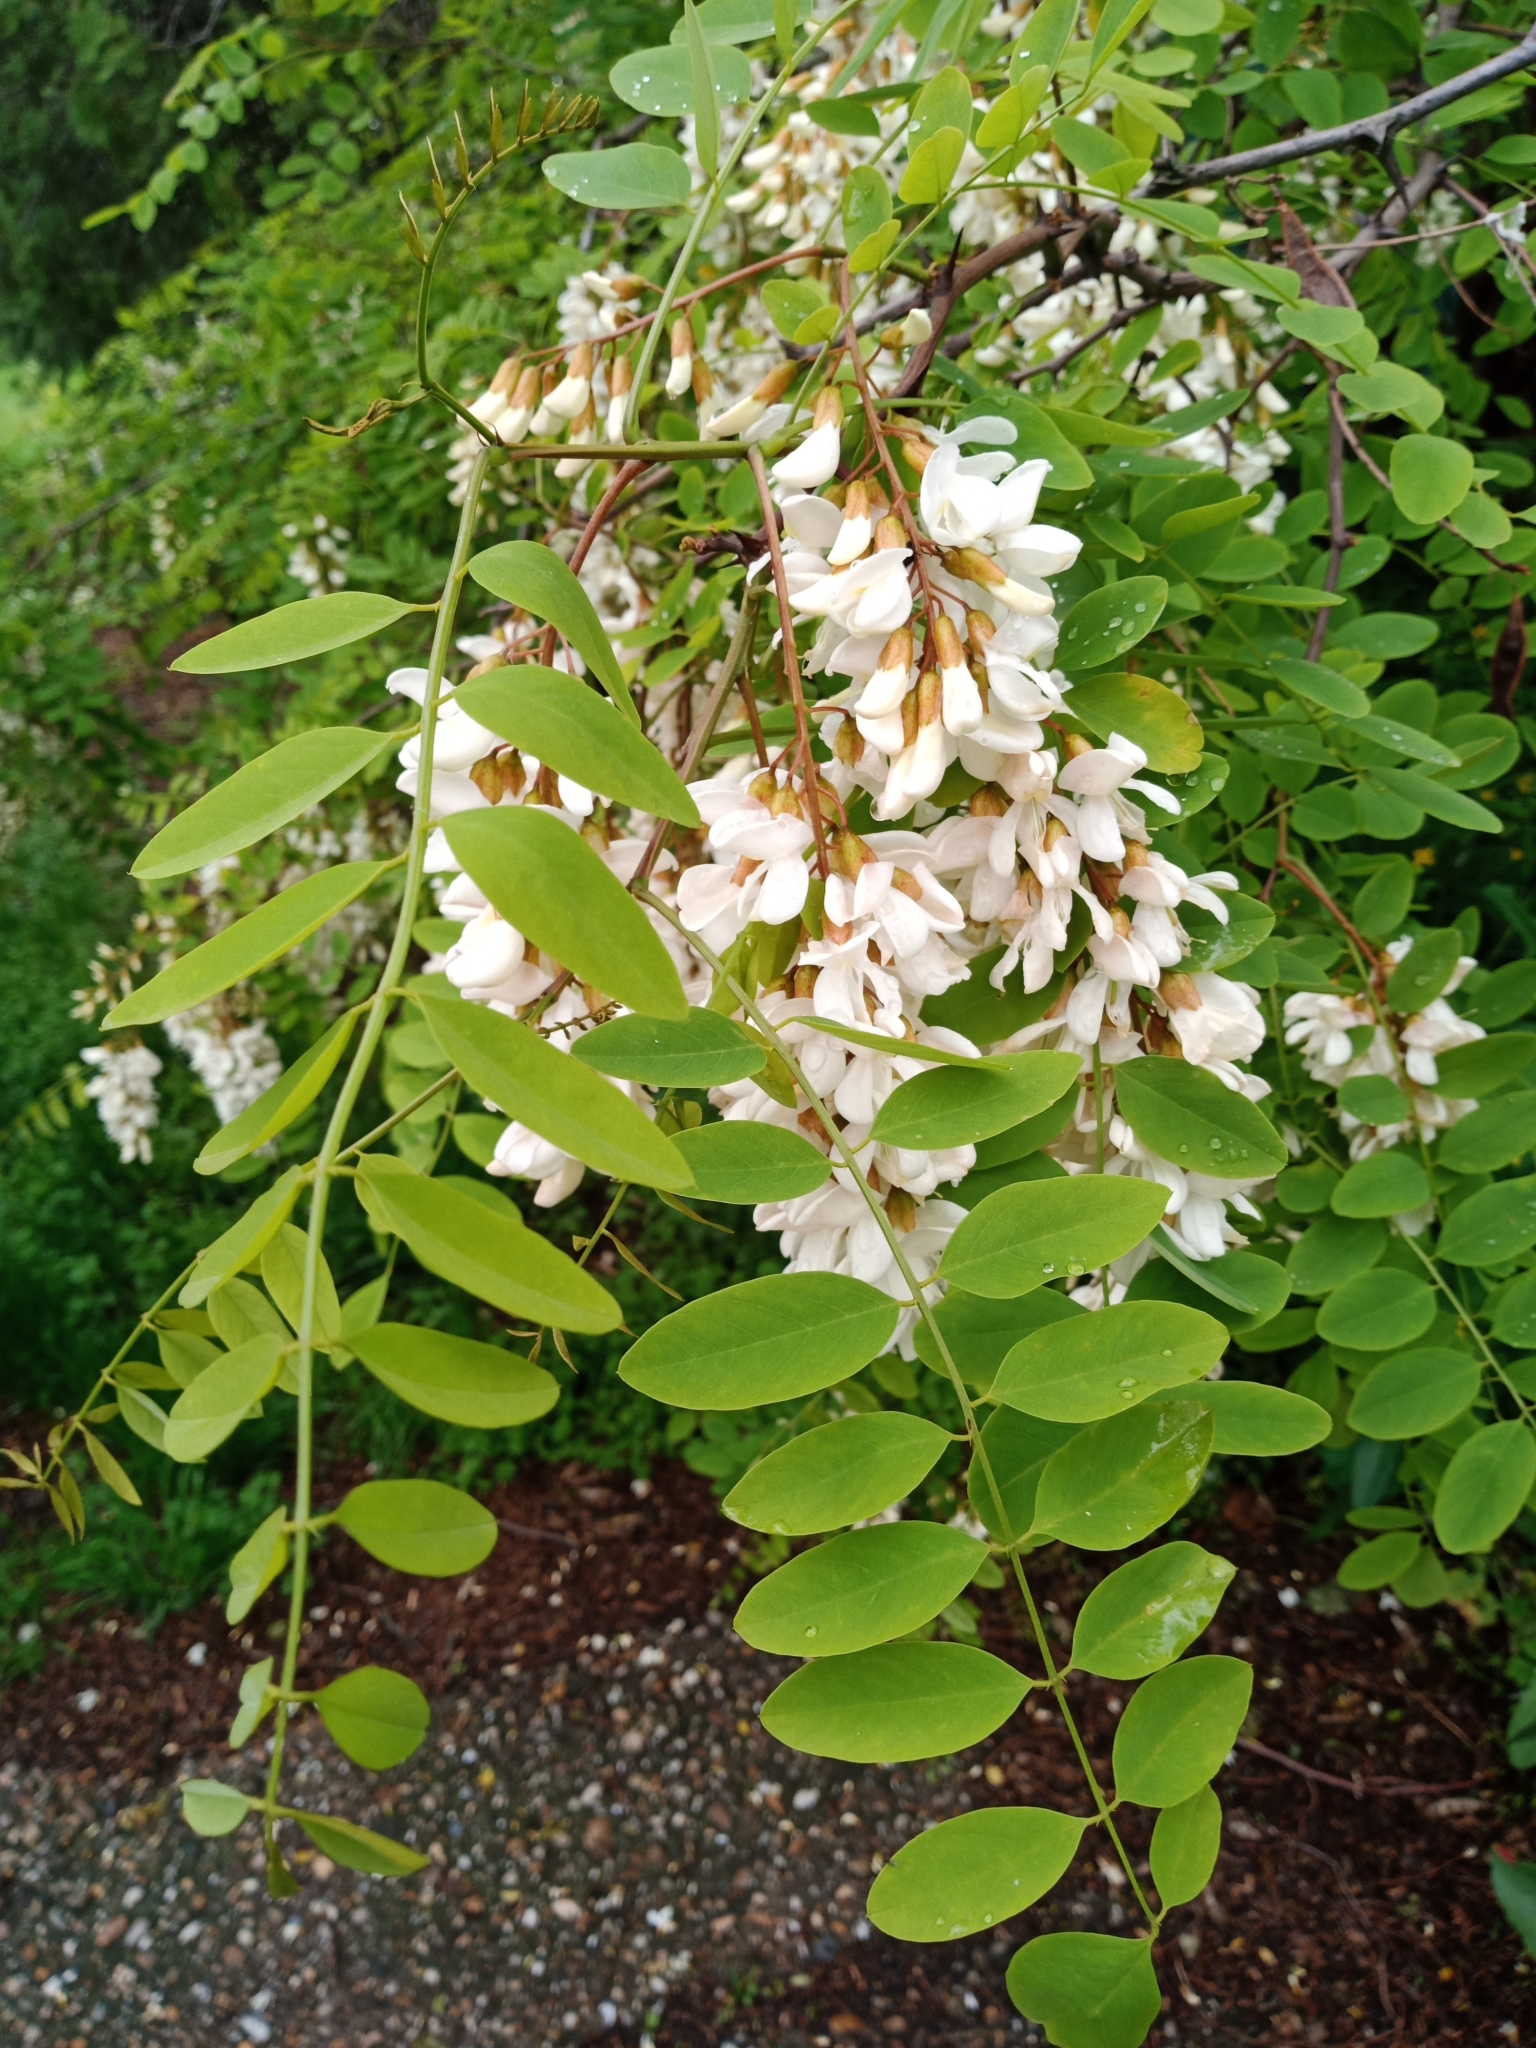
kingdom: Plantae
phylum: Tracheophyta
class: Magnoliopsida
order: Fabales
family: Fabaceae
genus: Robinia
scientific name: Robinia pseudoacacia
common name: Black locust
